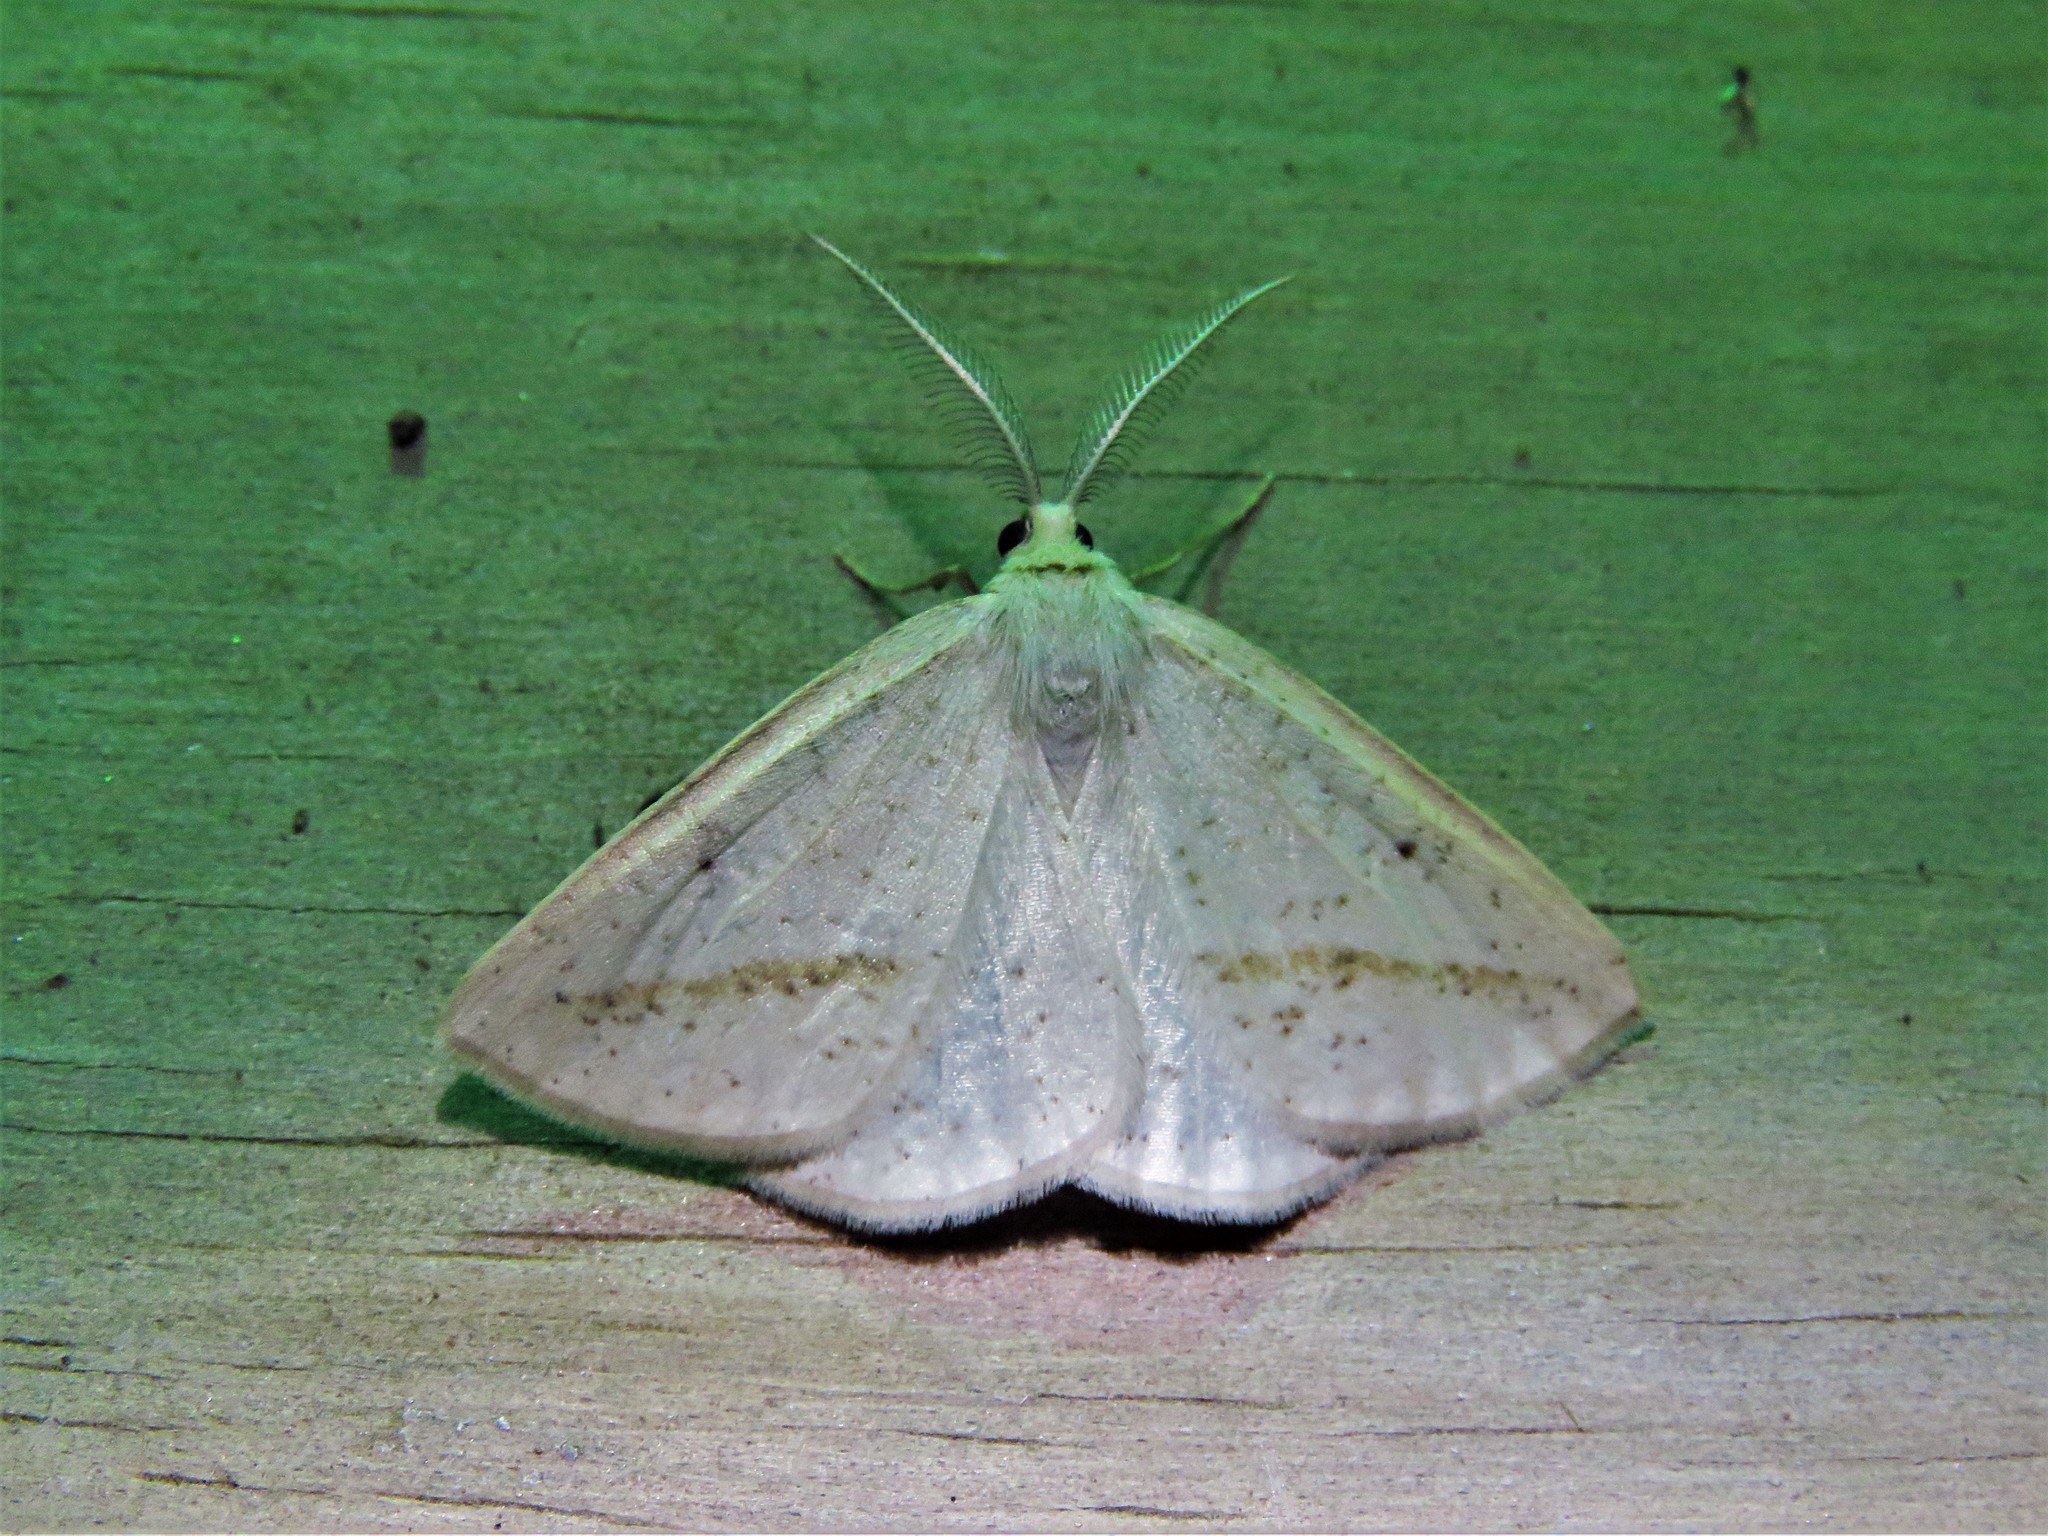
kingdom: Animalia
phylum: Arthropoda
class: Insecta
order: Lepidoptera
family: Geometridae
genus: Lychnosea
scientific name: Lychnosea intermicata
